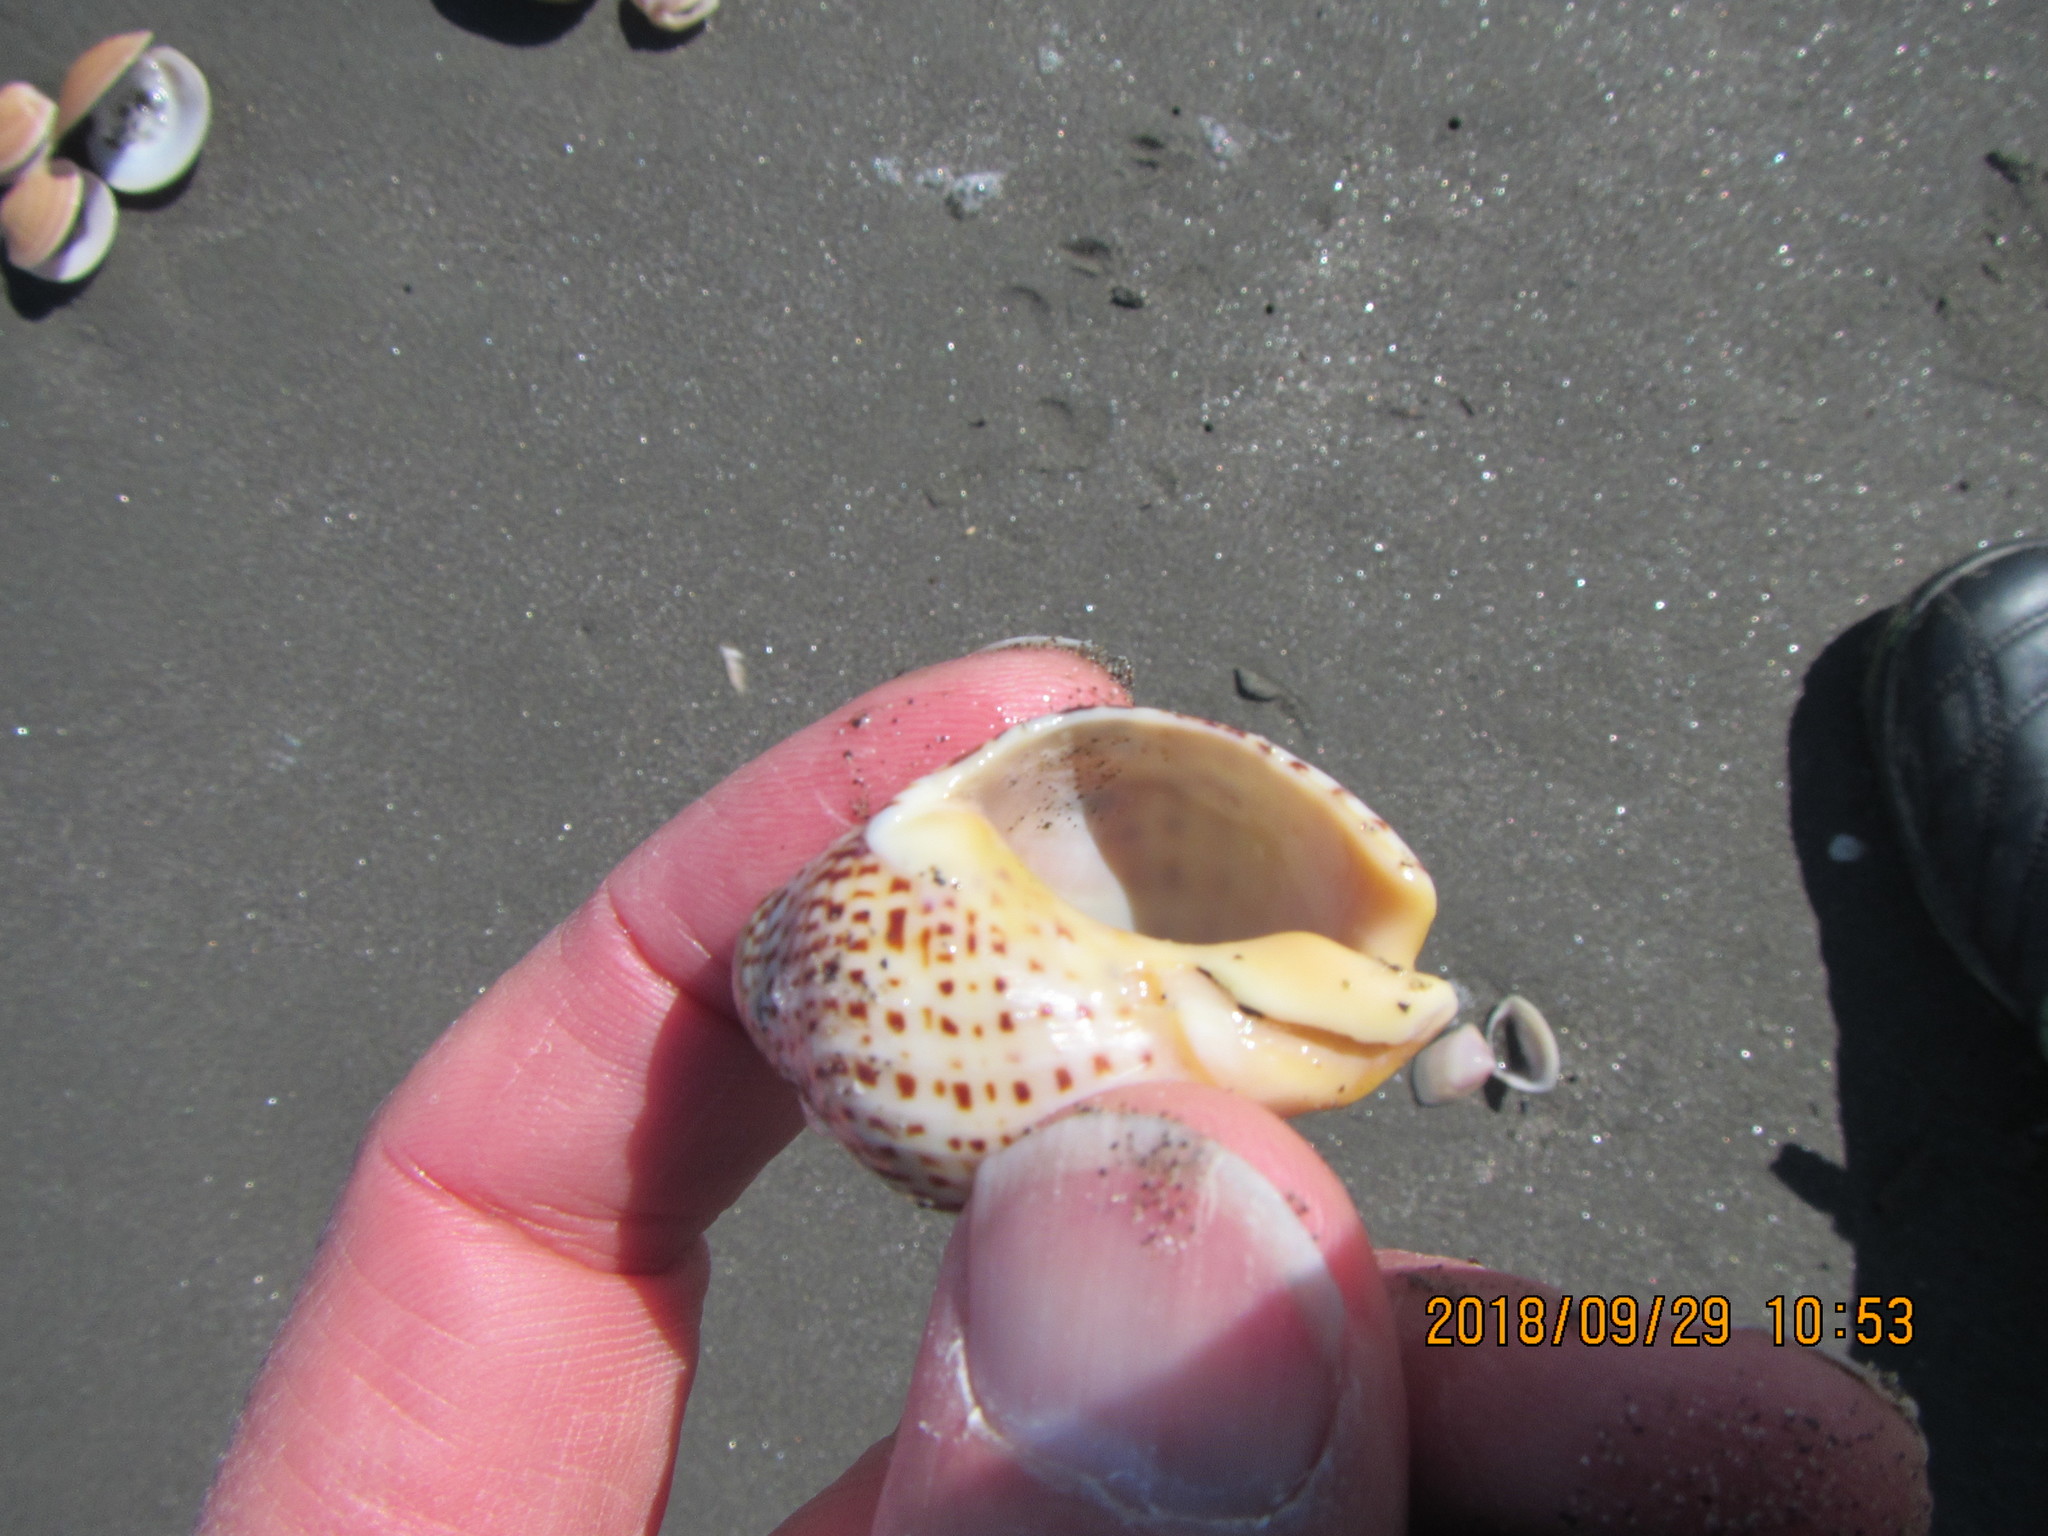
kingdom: Animalia
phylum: Mollusca
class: Gastropoda
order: Neogastropoda
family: Cominellidae
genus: Cominella
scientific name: Cominella adspersa
